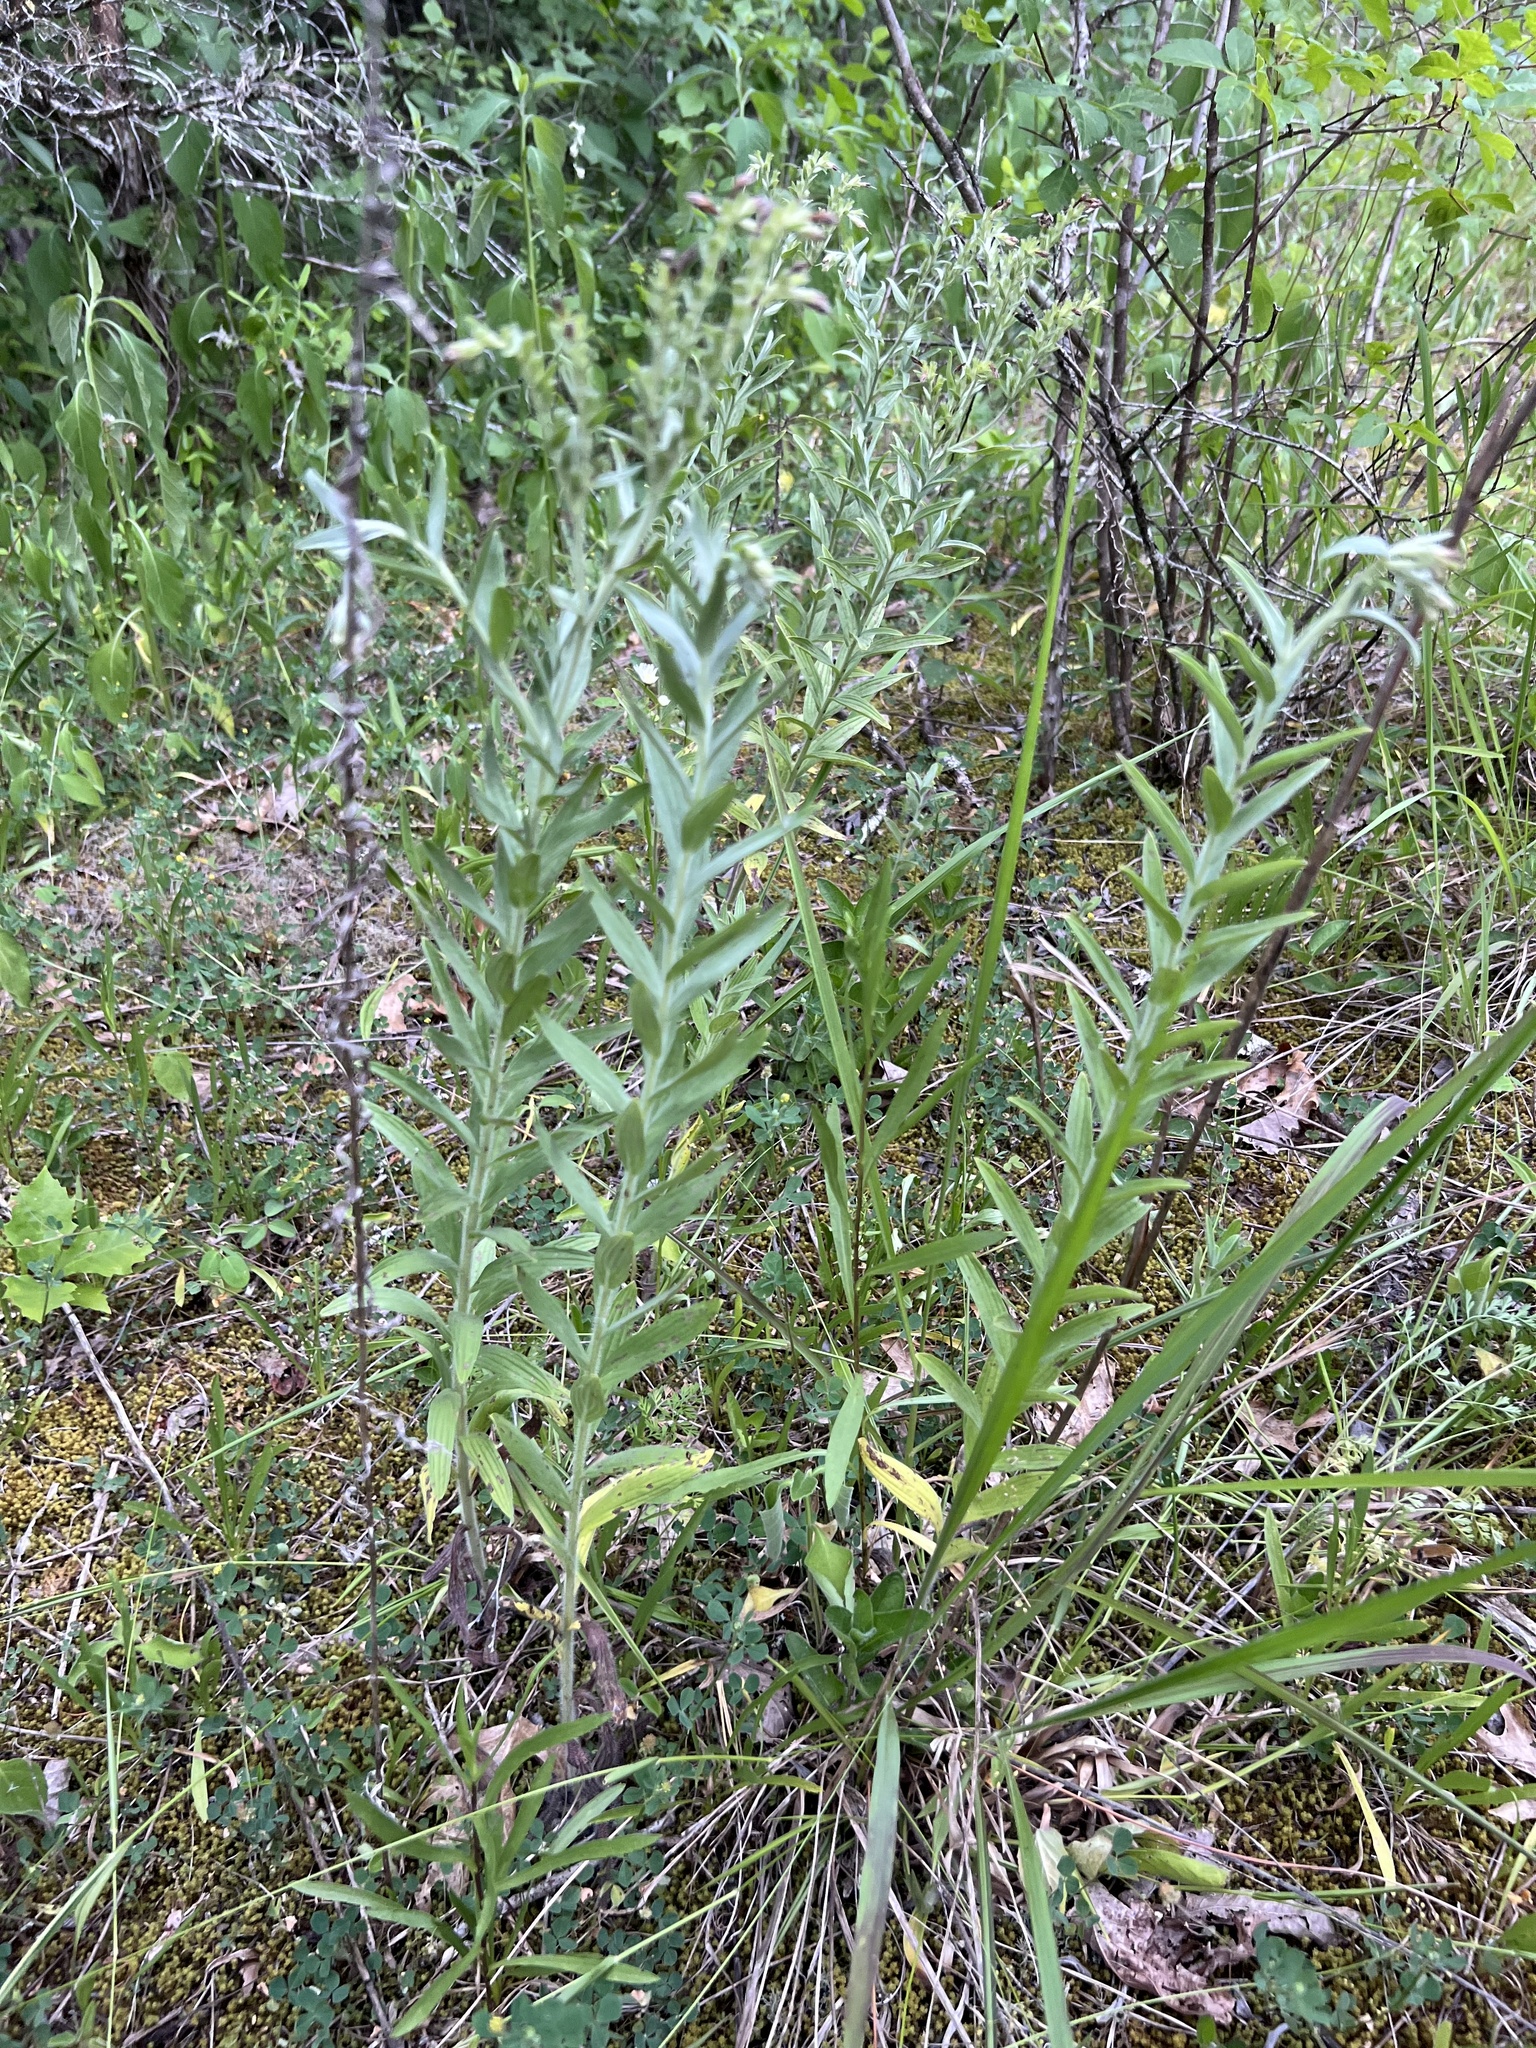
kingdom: Plantae
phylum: Tracheophyta
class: Magnoliopsida
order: Boraginales
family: Boraginaceae
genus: Lithospermum
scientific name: Lithospermum molle
